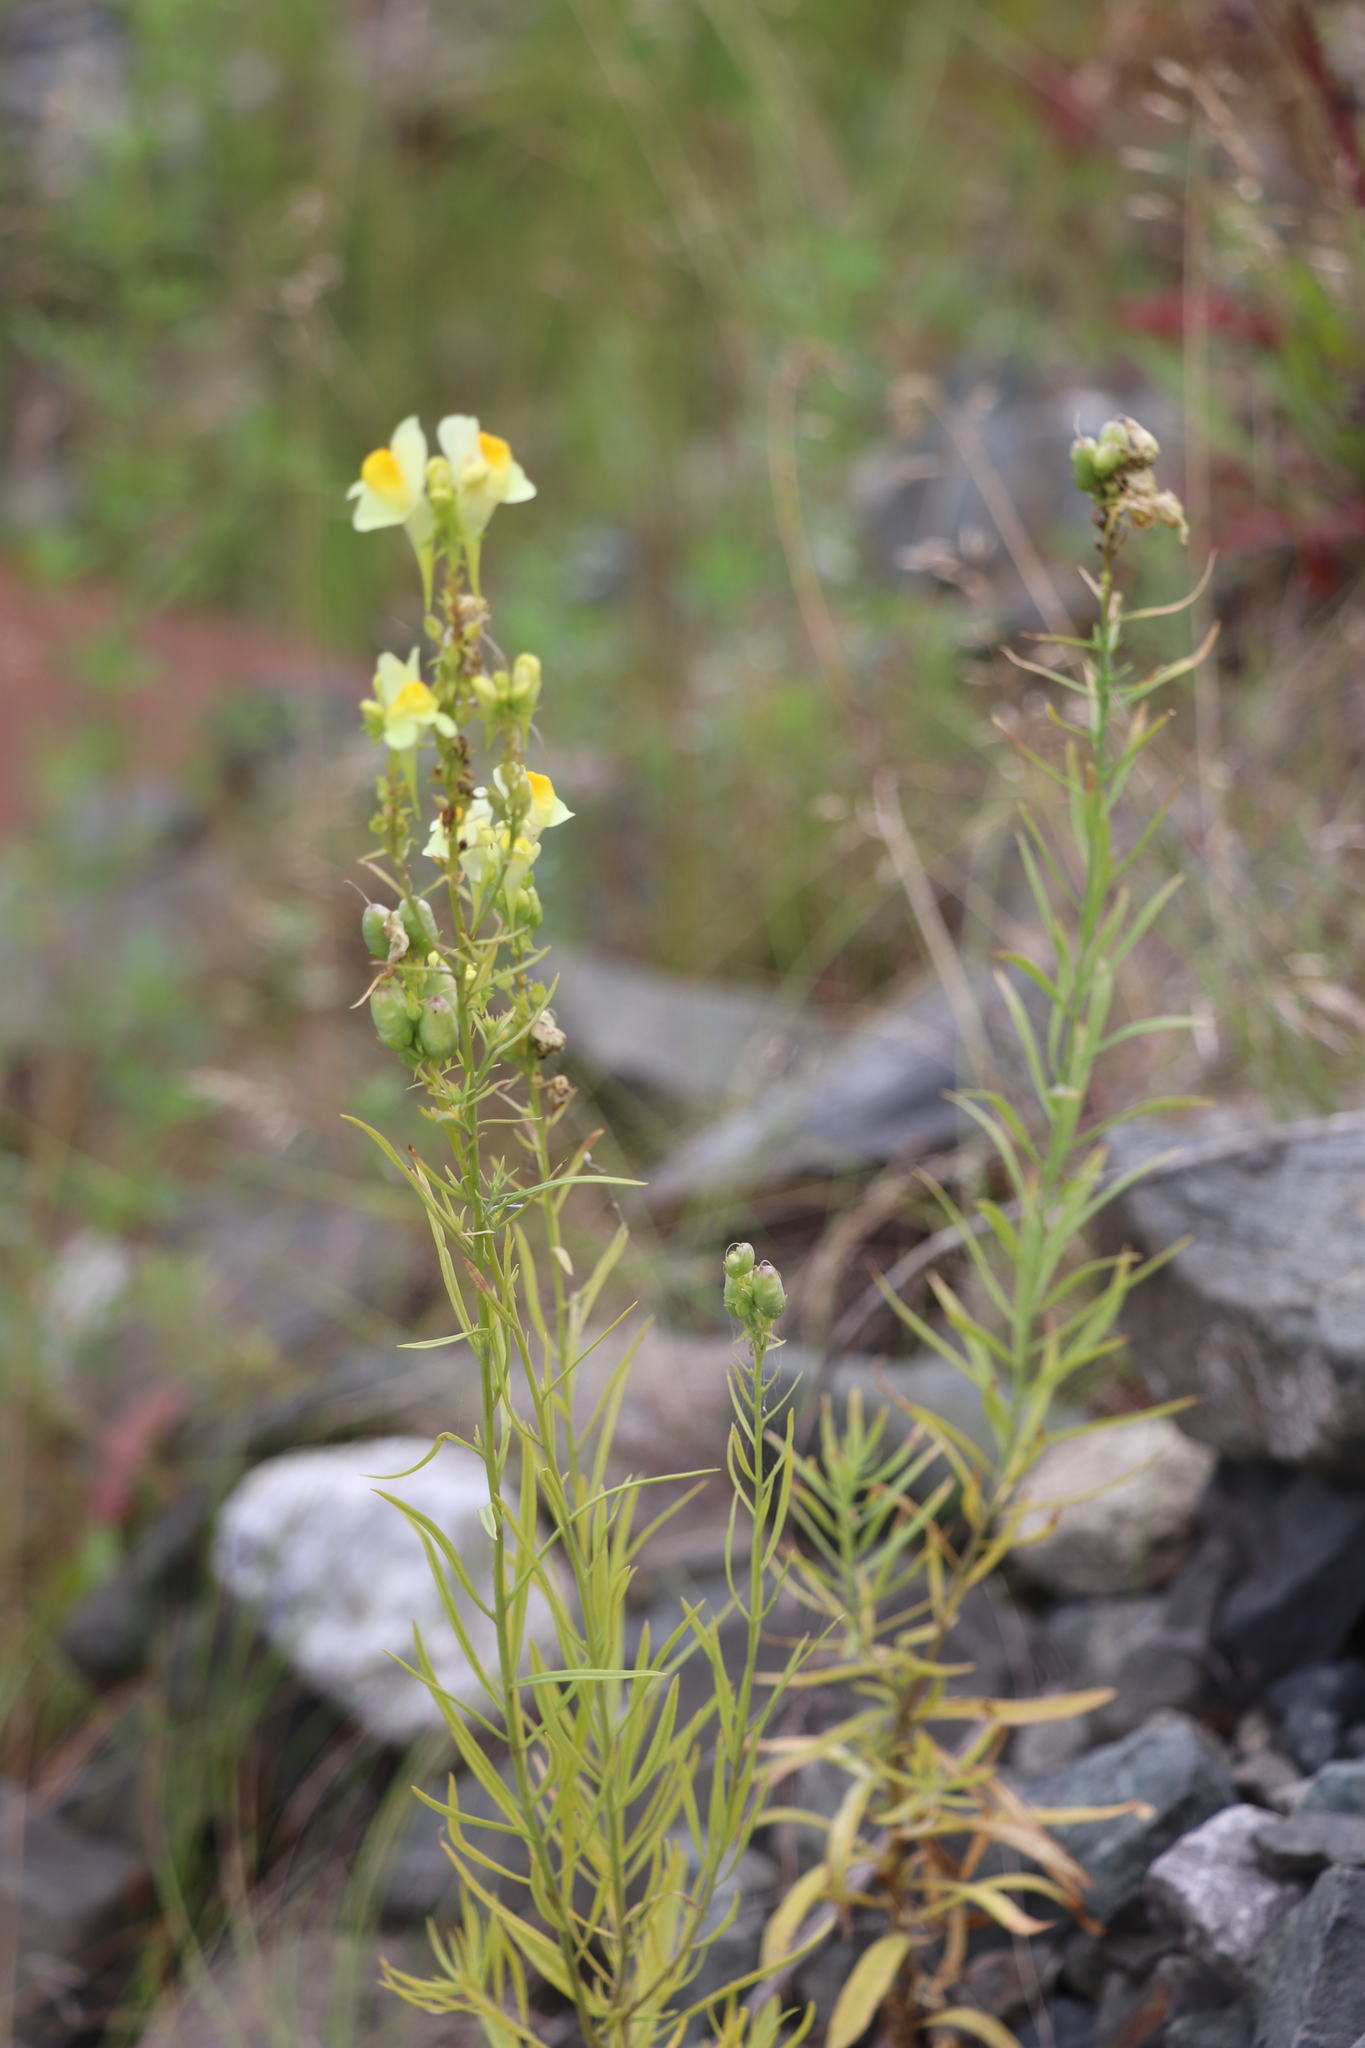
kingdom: Plantae
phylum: Tracheophyta
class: Magnoliopsida
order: Lamiales
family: Plantaginaceae
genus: Linaria
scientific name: Linaria vulgaris
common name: Butter and eggs
